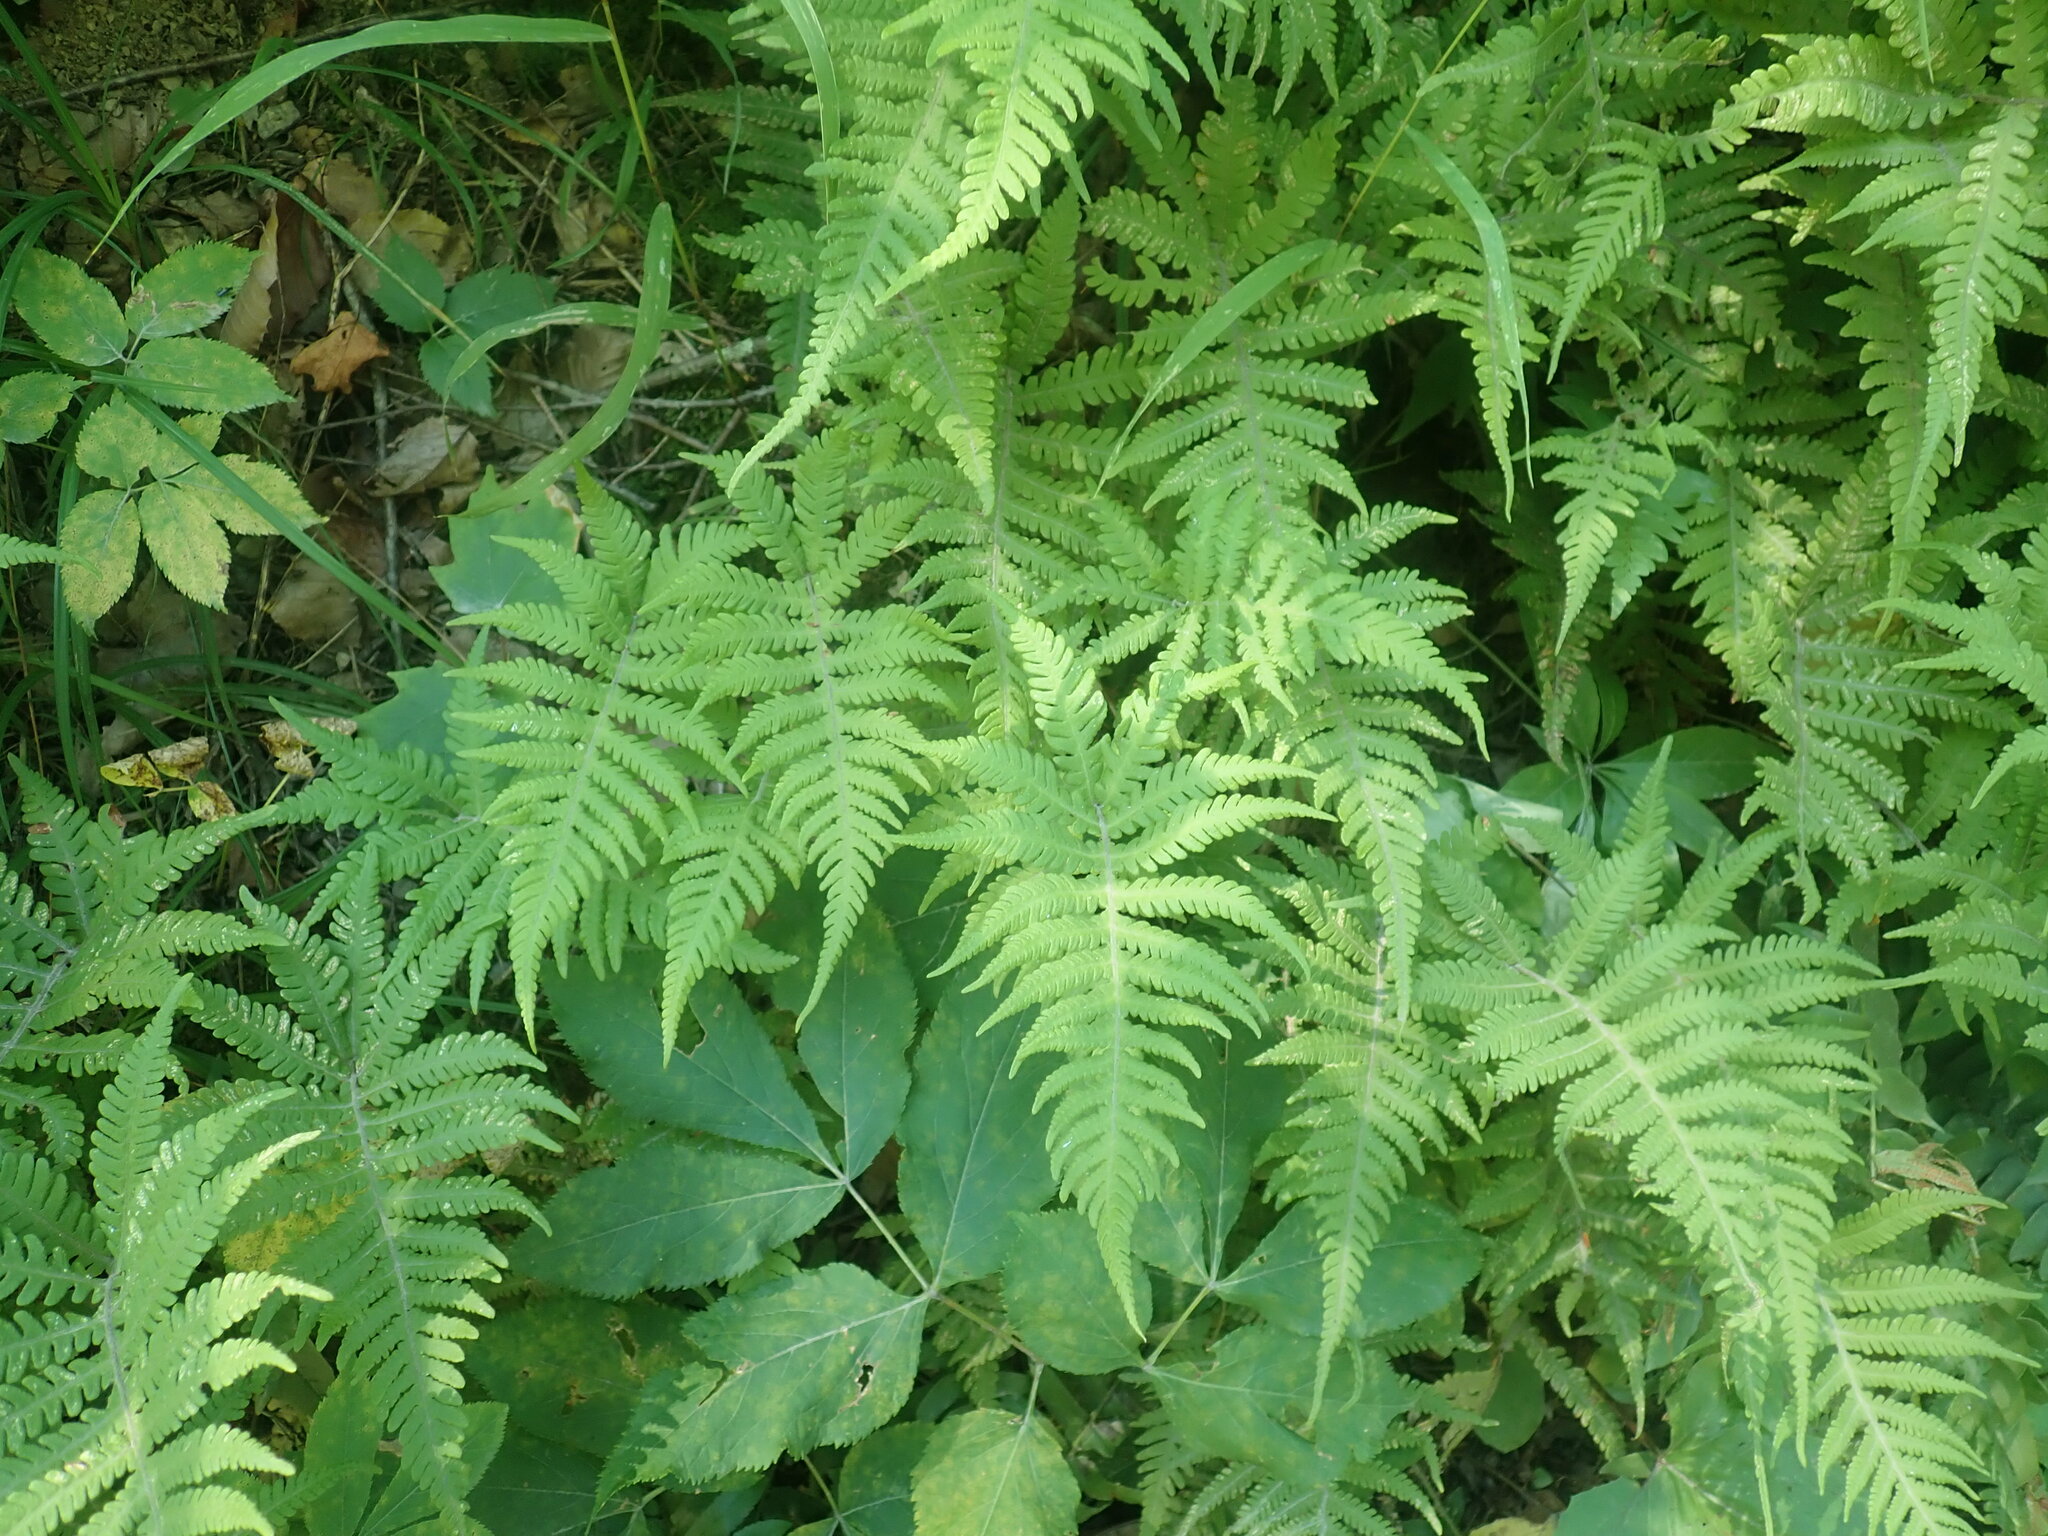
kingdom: Plantae
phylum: Tracheophyta
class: Polypodiopsida
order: Polypodiales
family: Thelypteridaceae
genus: Phegopteris
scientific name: Phegopteris connectilis
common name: Beech fern
